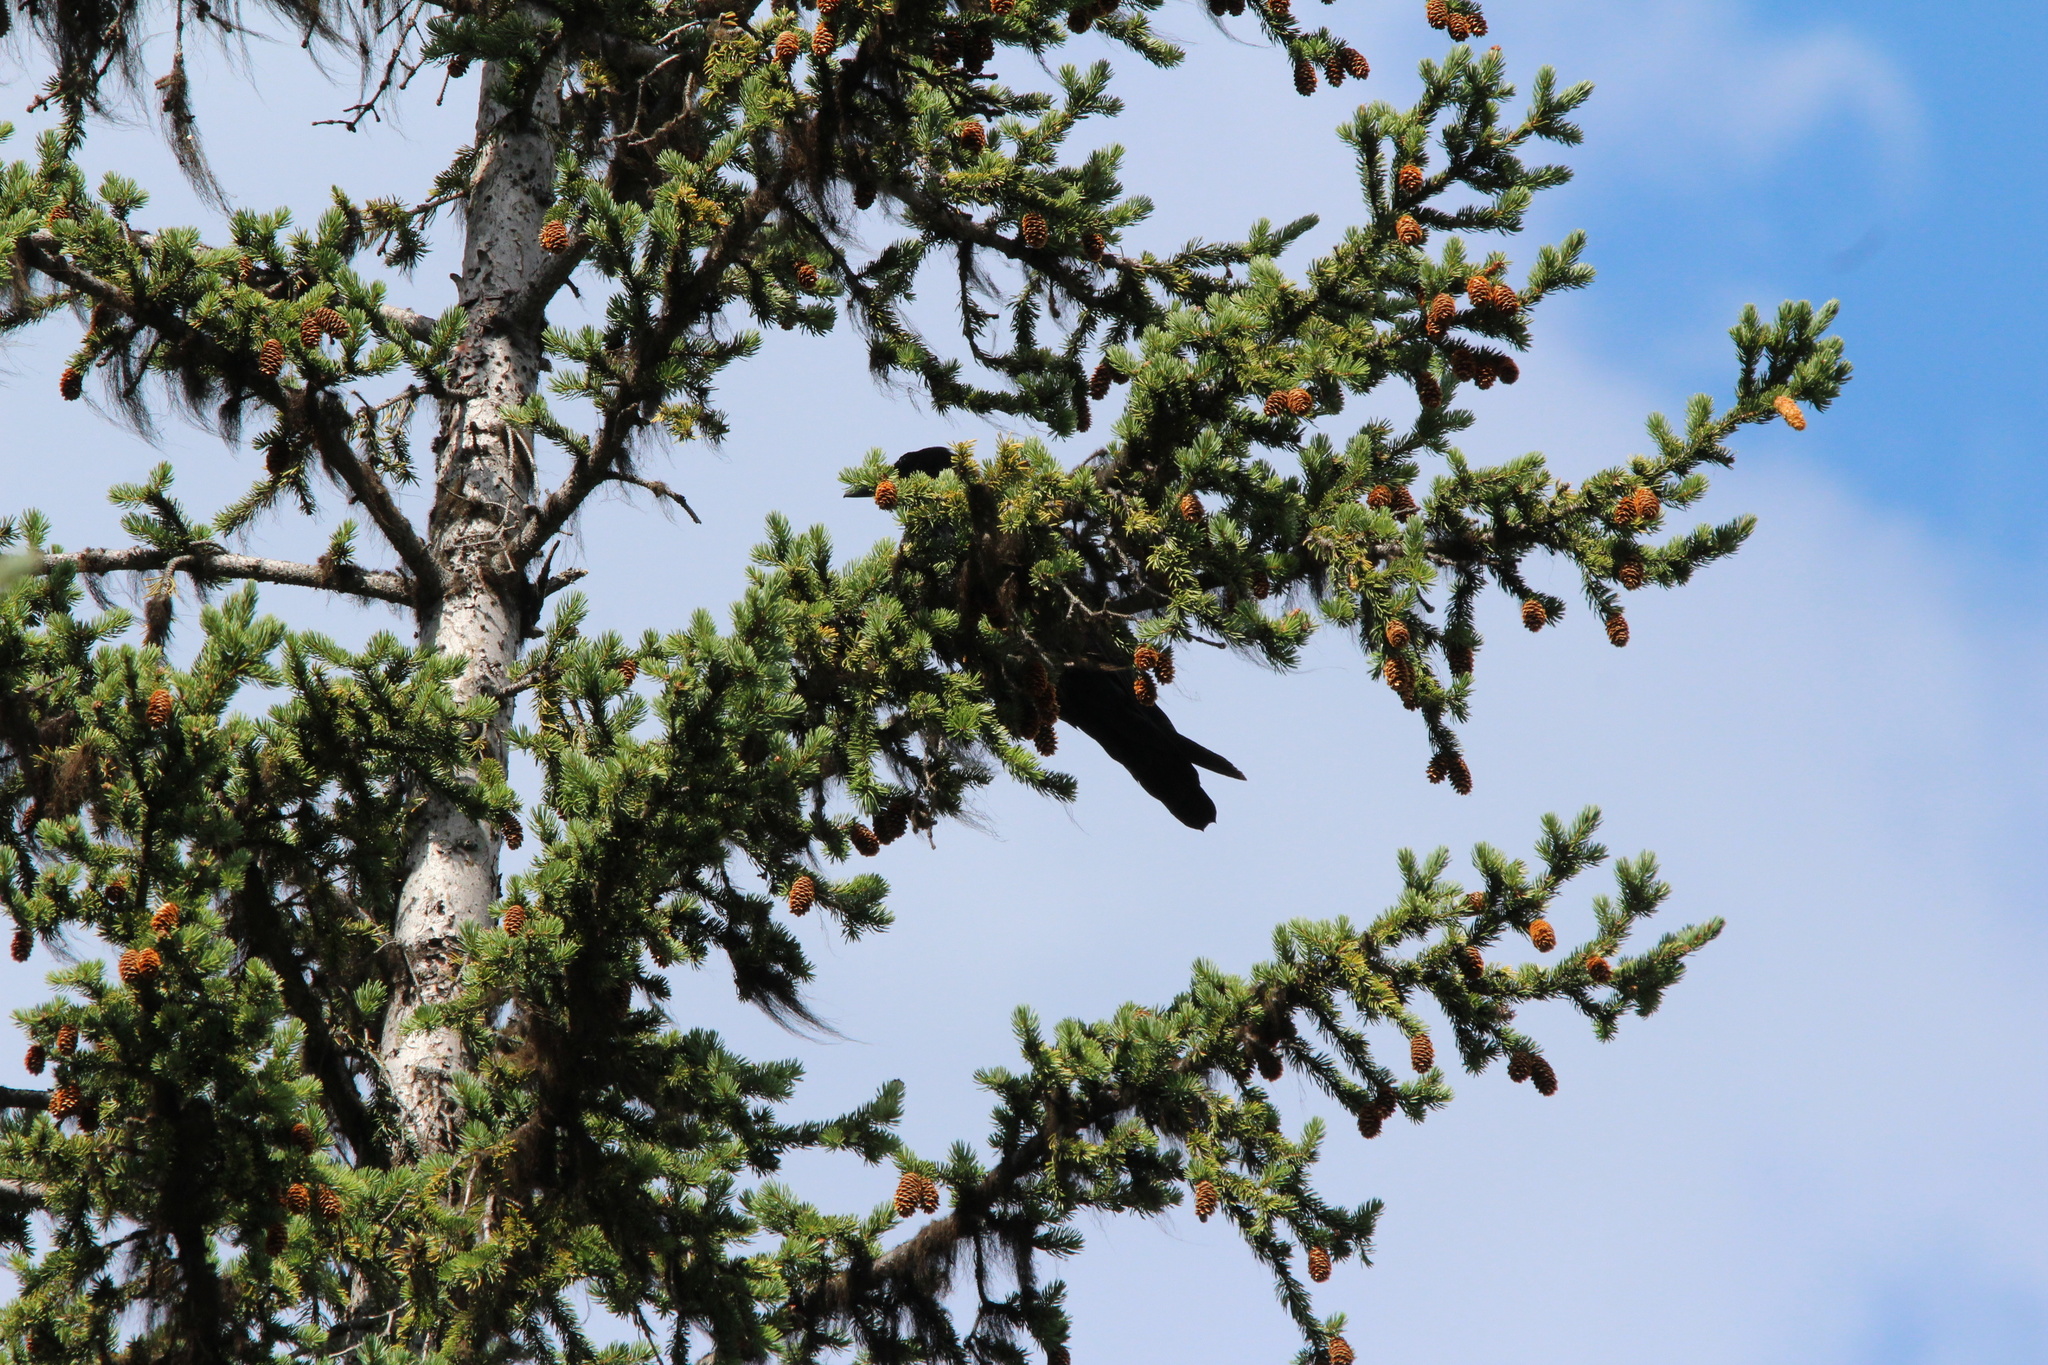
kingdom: Animalia
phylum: Chordata
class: Aves
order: Passeriformes
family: Corvidae
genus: Corvus
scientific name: Corvus corax
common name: Common raven
